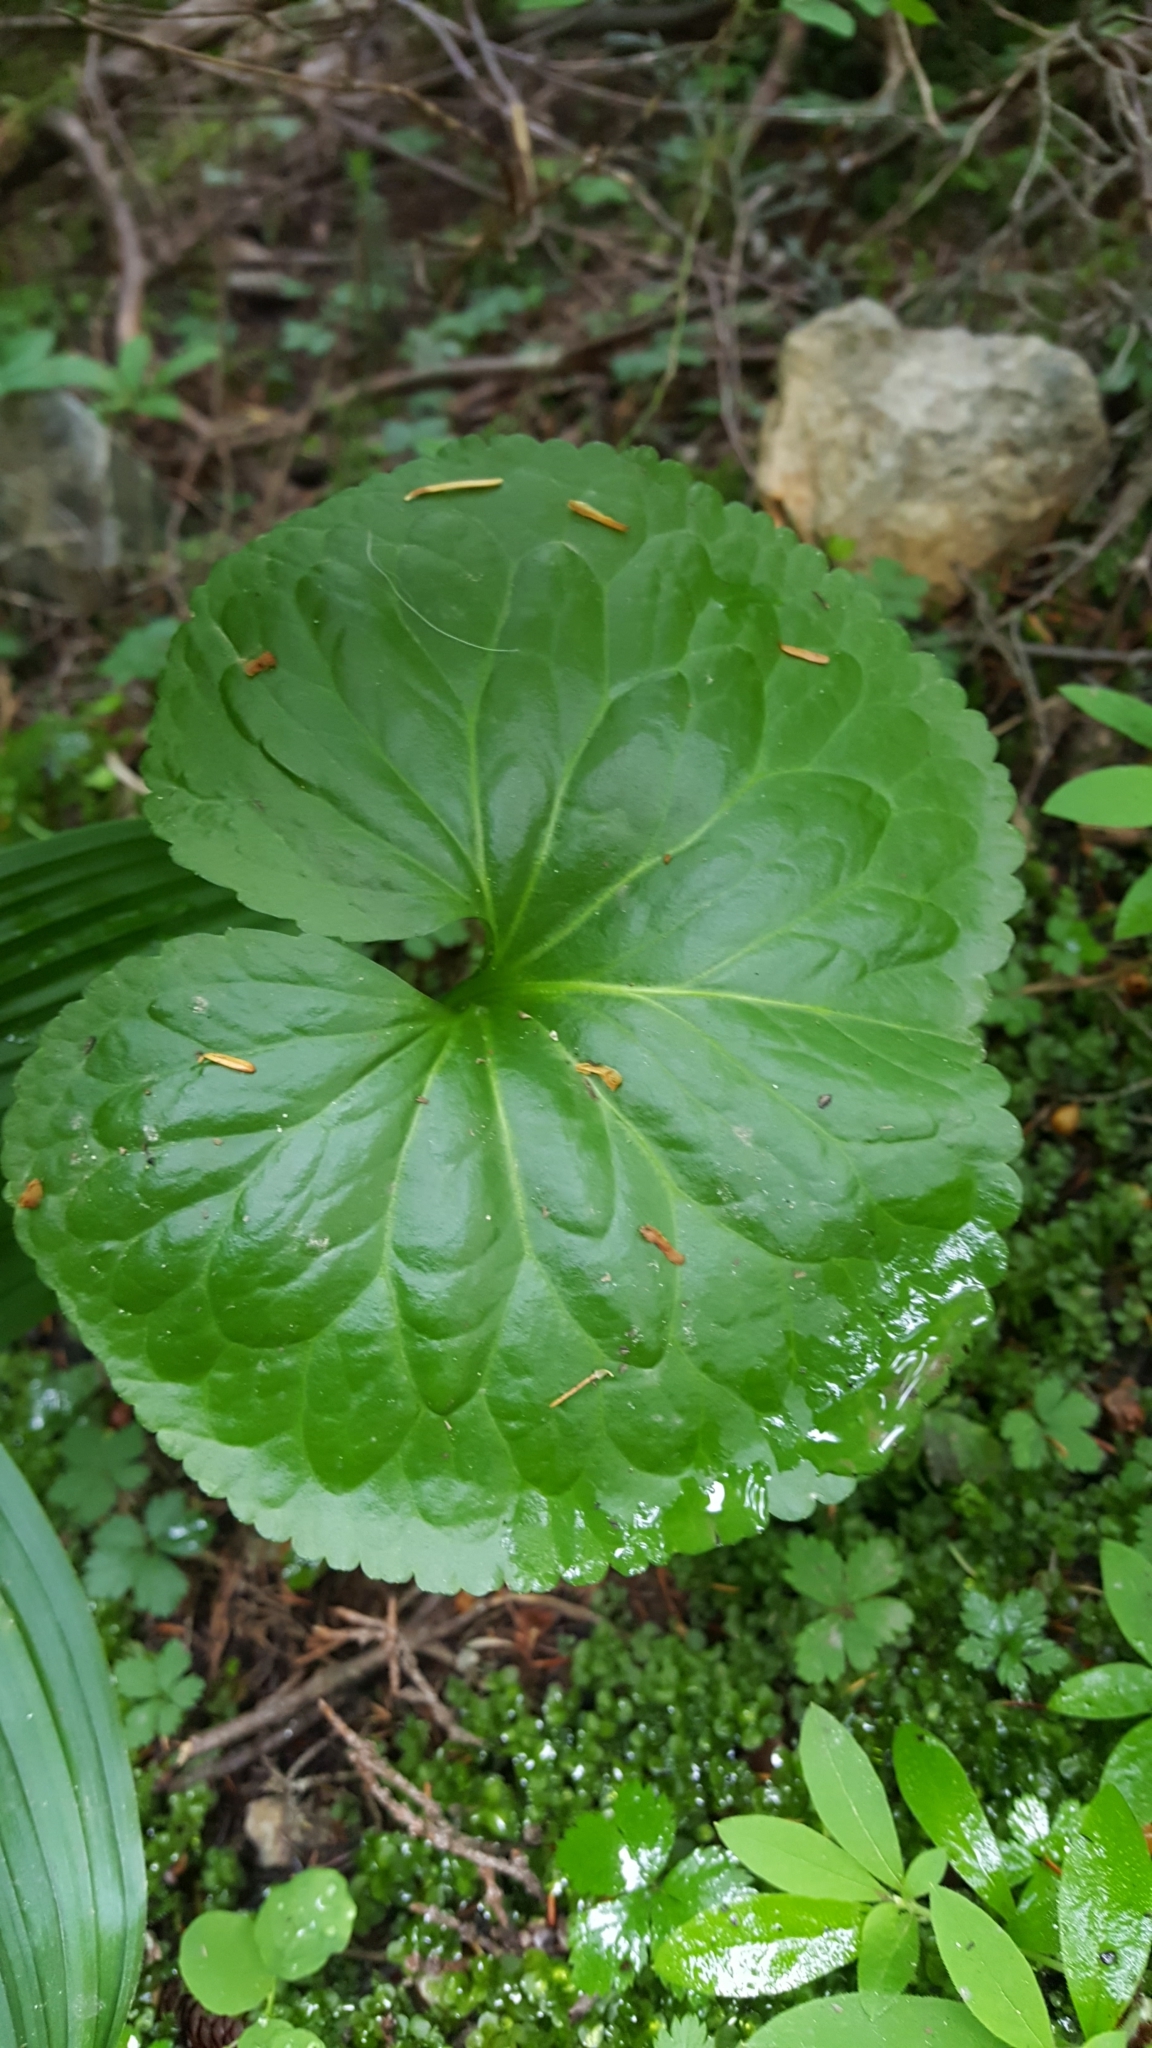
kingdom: Plantae
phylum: Tracheophyta
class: Magnoliopsida
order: Asterales
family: Menyanthaceae
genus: Nephrophyllidium
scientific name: Nephrophyllidium crista-galli
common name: Deer-cabbage
